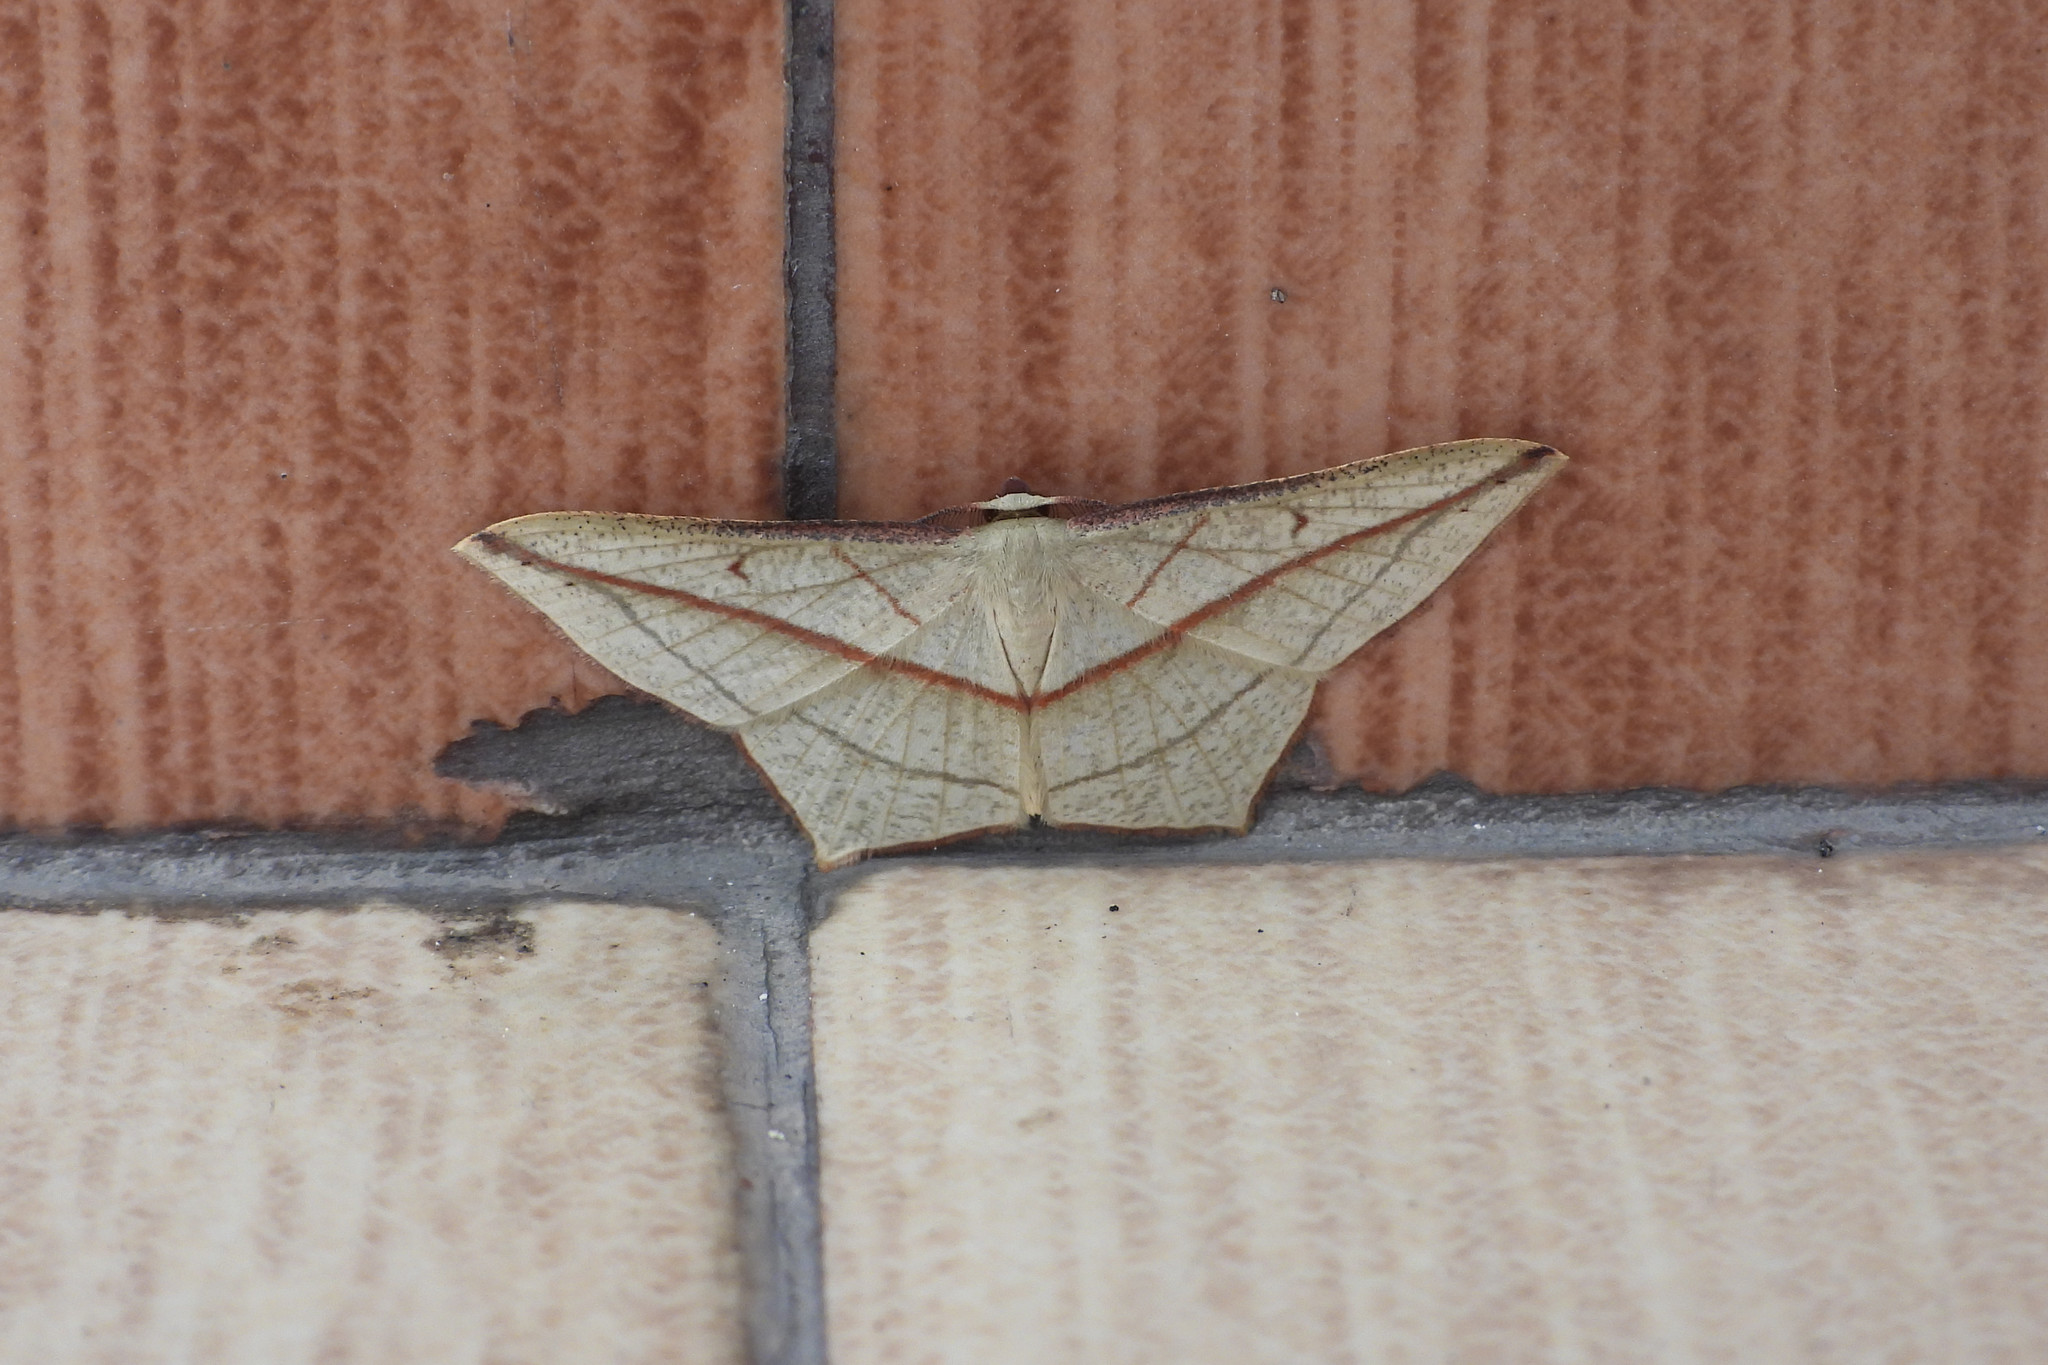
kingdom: Animalia
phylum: Arthropoda
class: Insecta
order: Lepidoptera
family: Geometridae
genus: Timandra
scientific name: Timandra correspondens
